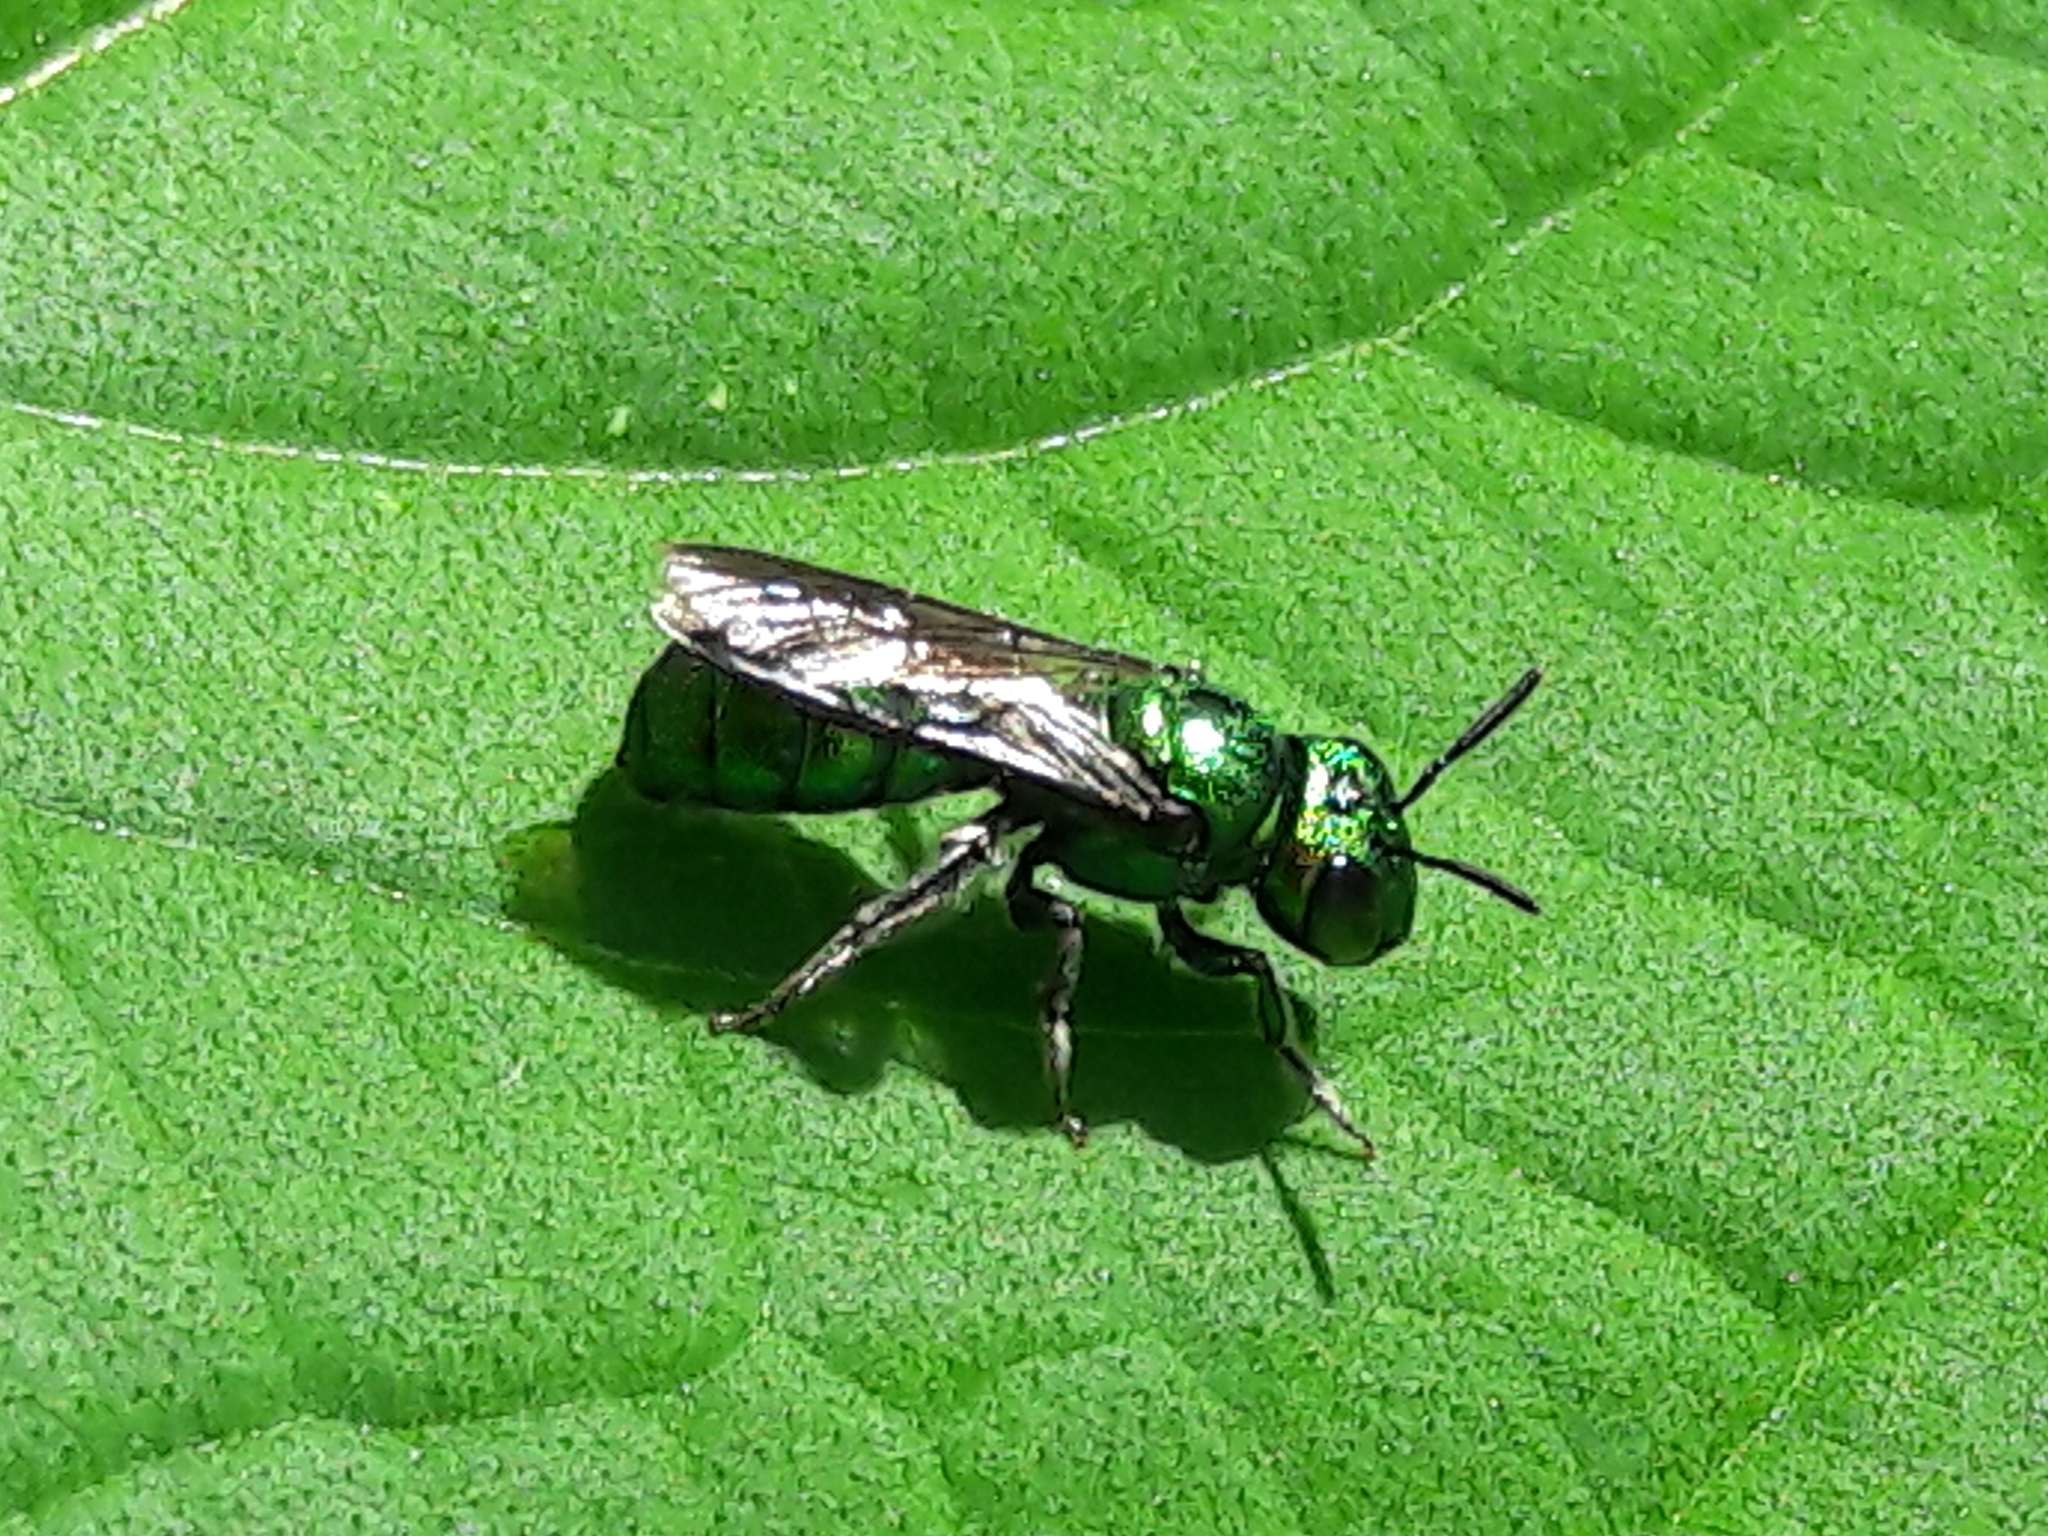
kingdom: Animalia
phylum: Arthropoda
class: Insecta
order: Hymenoptera
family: Apidae
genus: Ceratina
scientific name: Ceratina chloris
